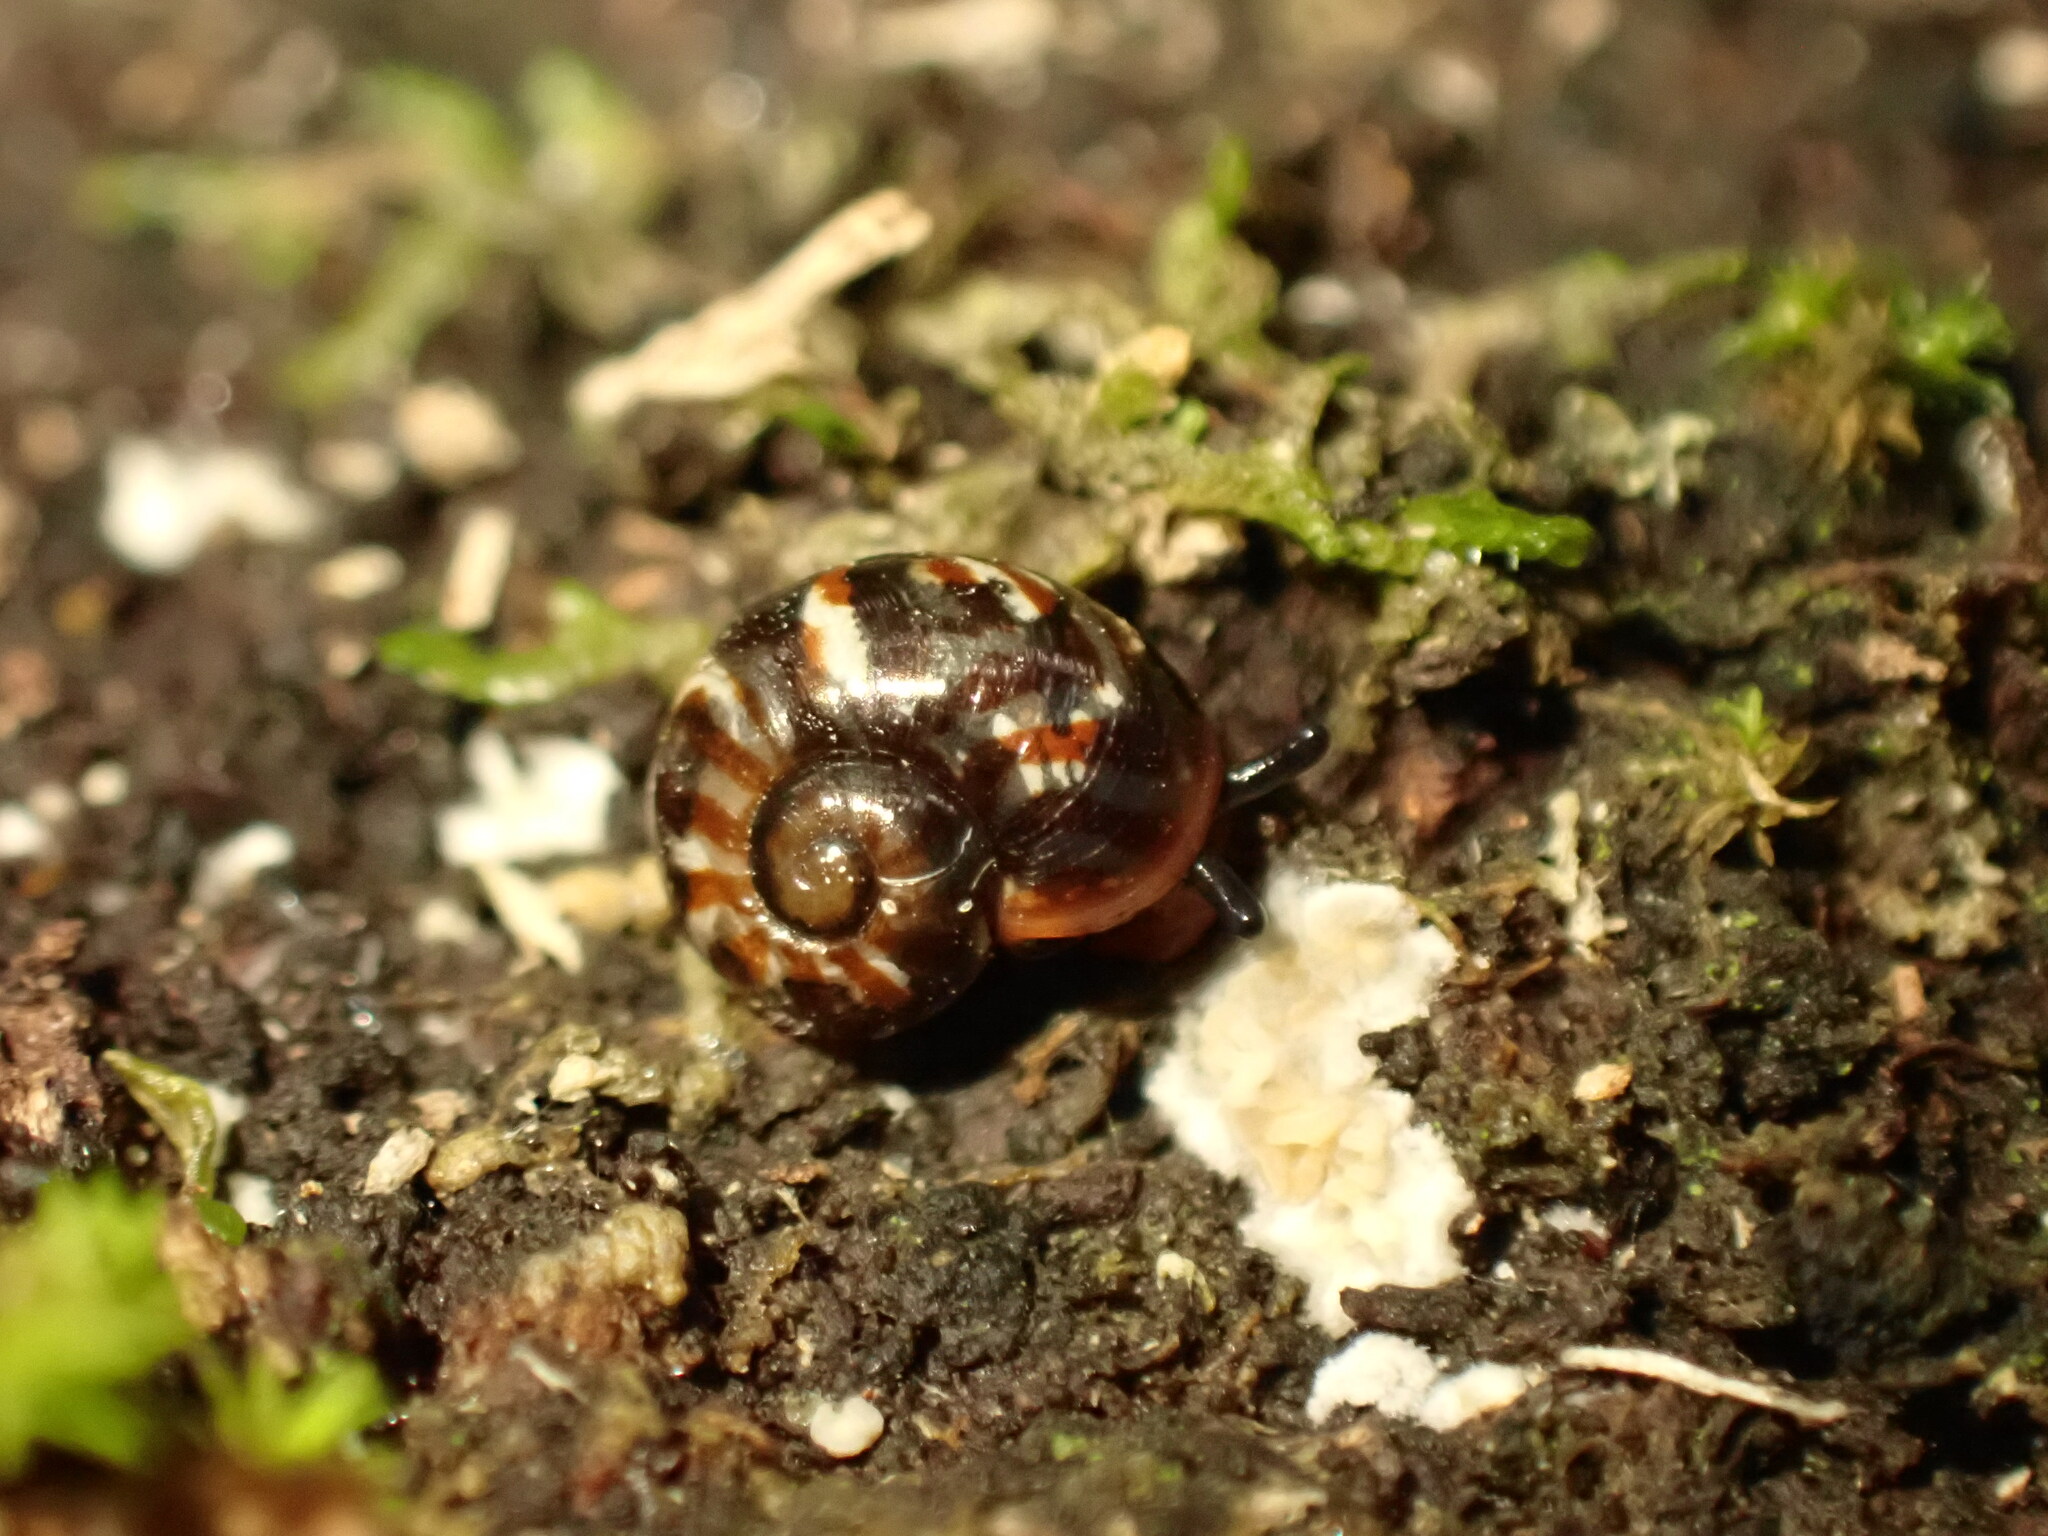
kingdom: Animalia
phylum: Mollusca
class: Gastropoda
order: Stylommatophora
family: Charopidae
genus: Flammulina
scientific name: Flammulina zebra
